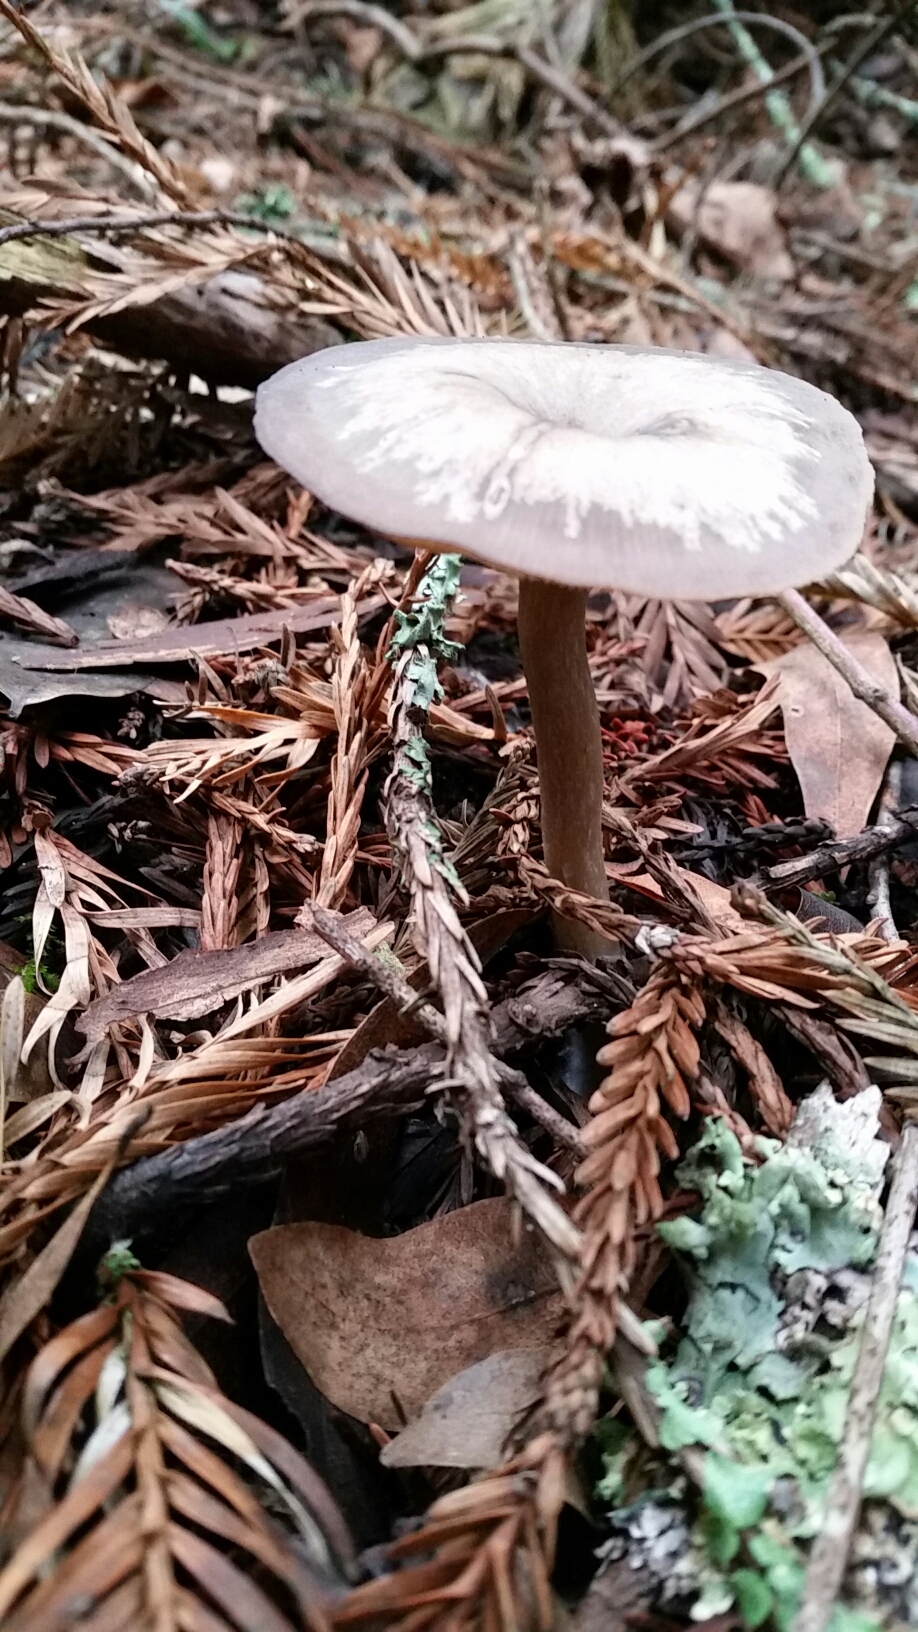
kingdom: Fungi
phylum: Basidiomycota
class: Agaricomycetes
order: Agaricales
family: Pseudoclitocybaceae
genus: Pseudoclitocybe
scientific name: Pseudoclitocybe cyathiformis
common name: Goblet
